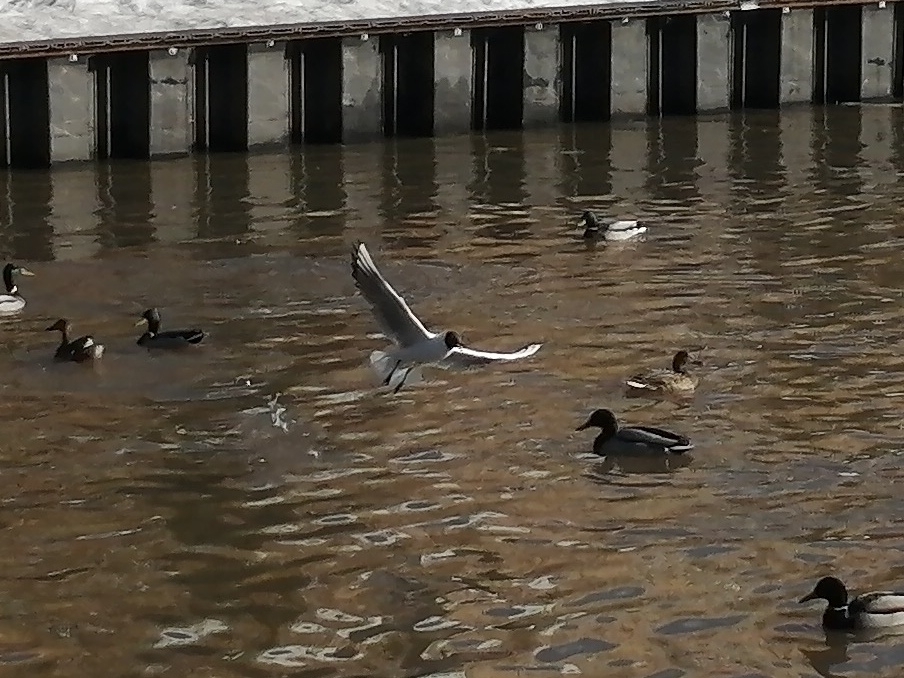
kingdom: Animalia
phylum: Chordata
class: Aves
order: Charadriiformes
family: Laridae
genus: Chroicocephalus
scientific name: Chroicocephalus ridibundus
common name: Black-headed gull
